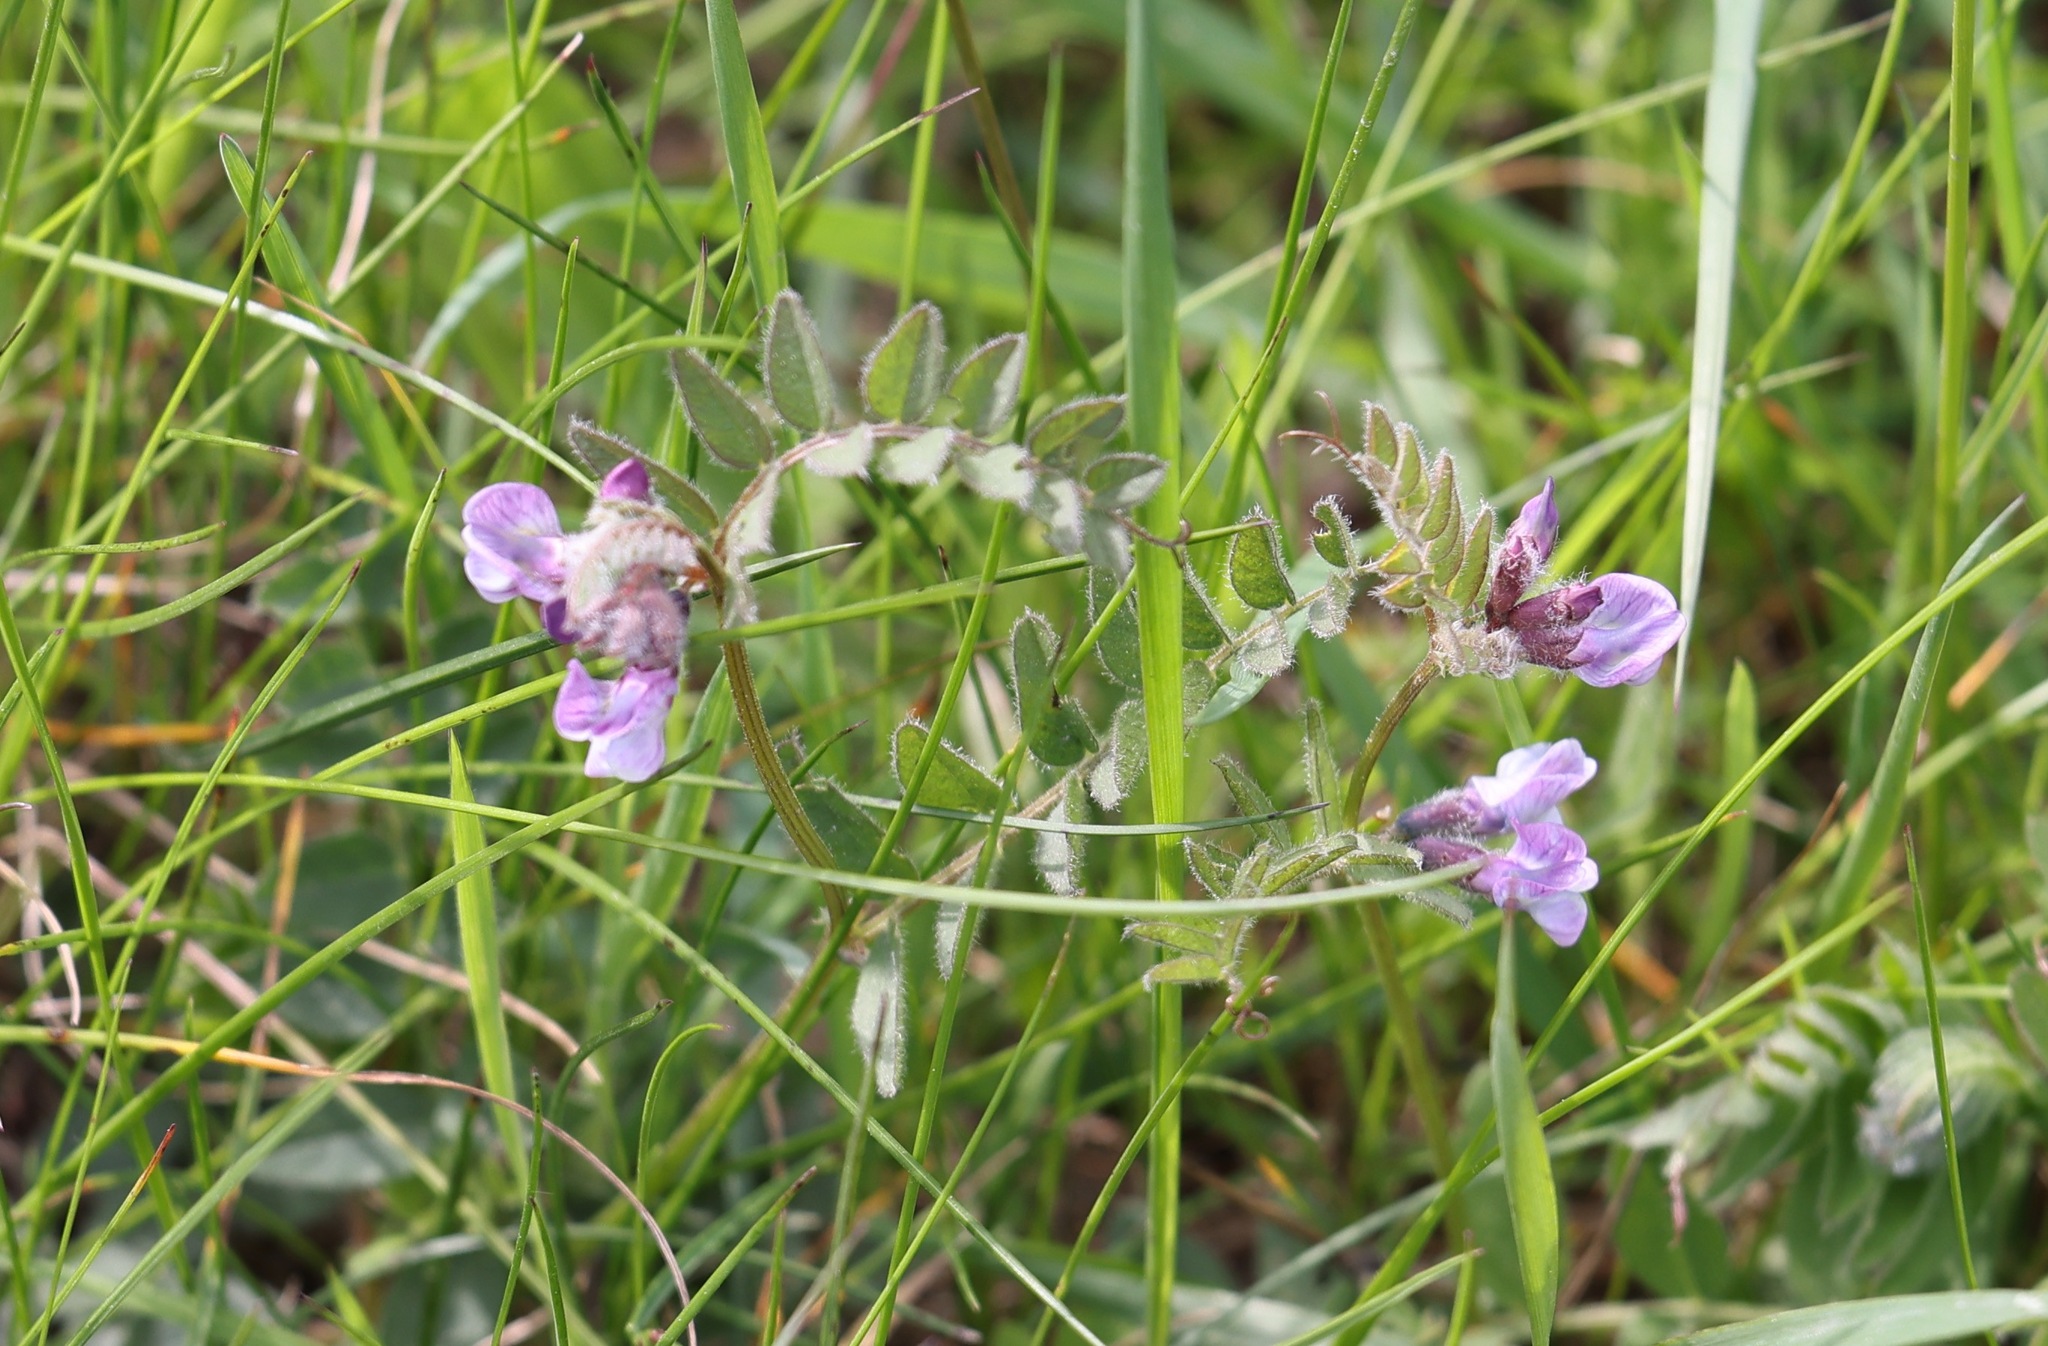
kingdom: Plantae
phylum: Tracheophyta
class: Magnoliopsida
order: Fabales
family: Fabaceae
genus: Vicia
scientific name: Vicia sepium
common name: Bush vetch
